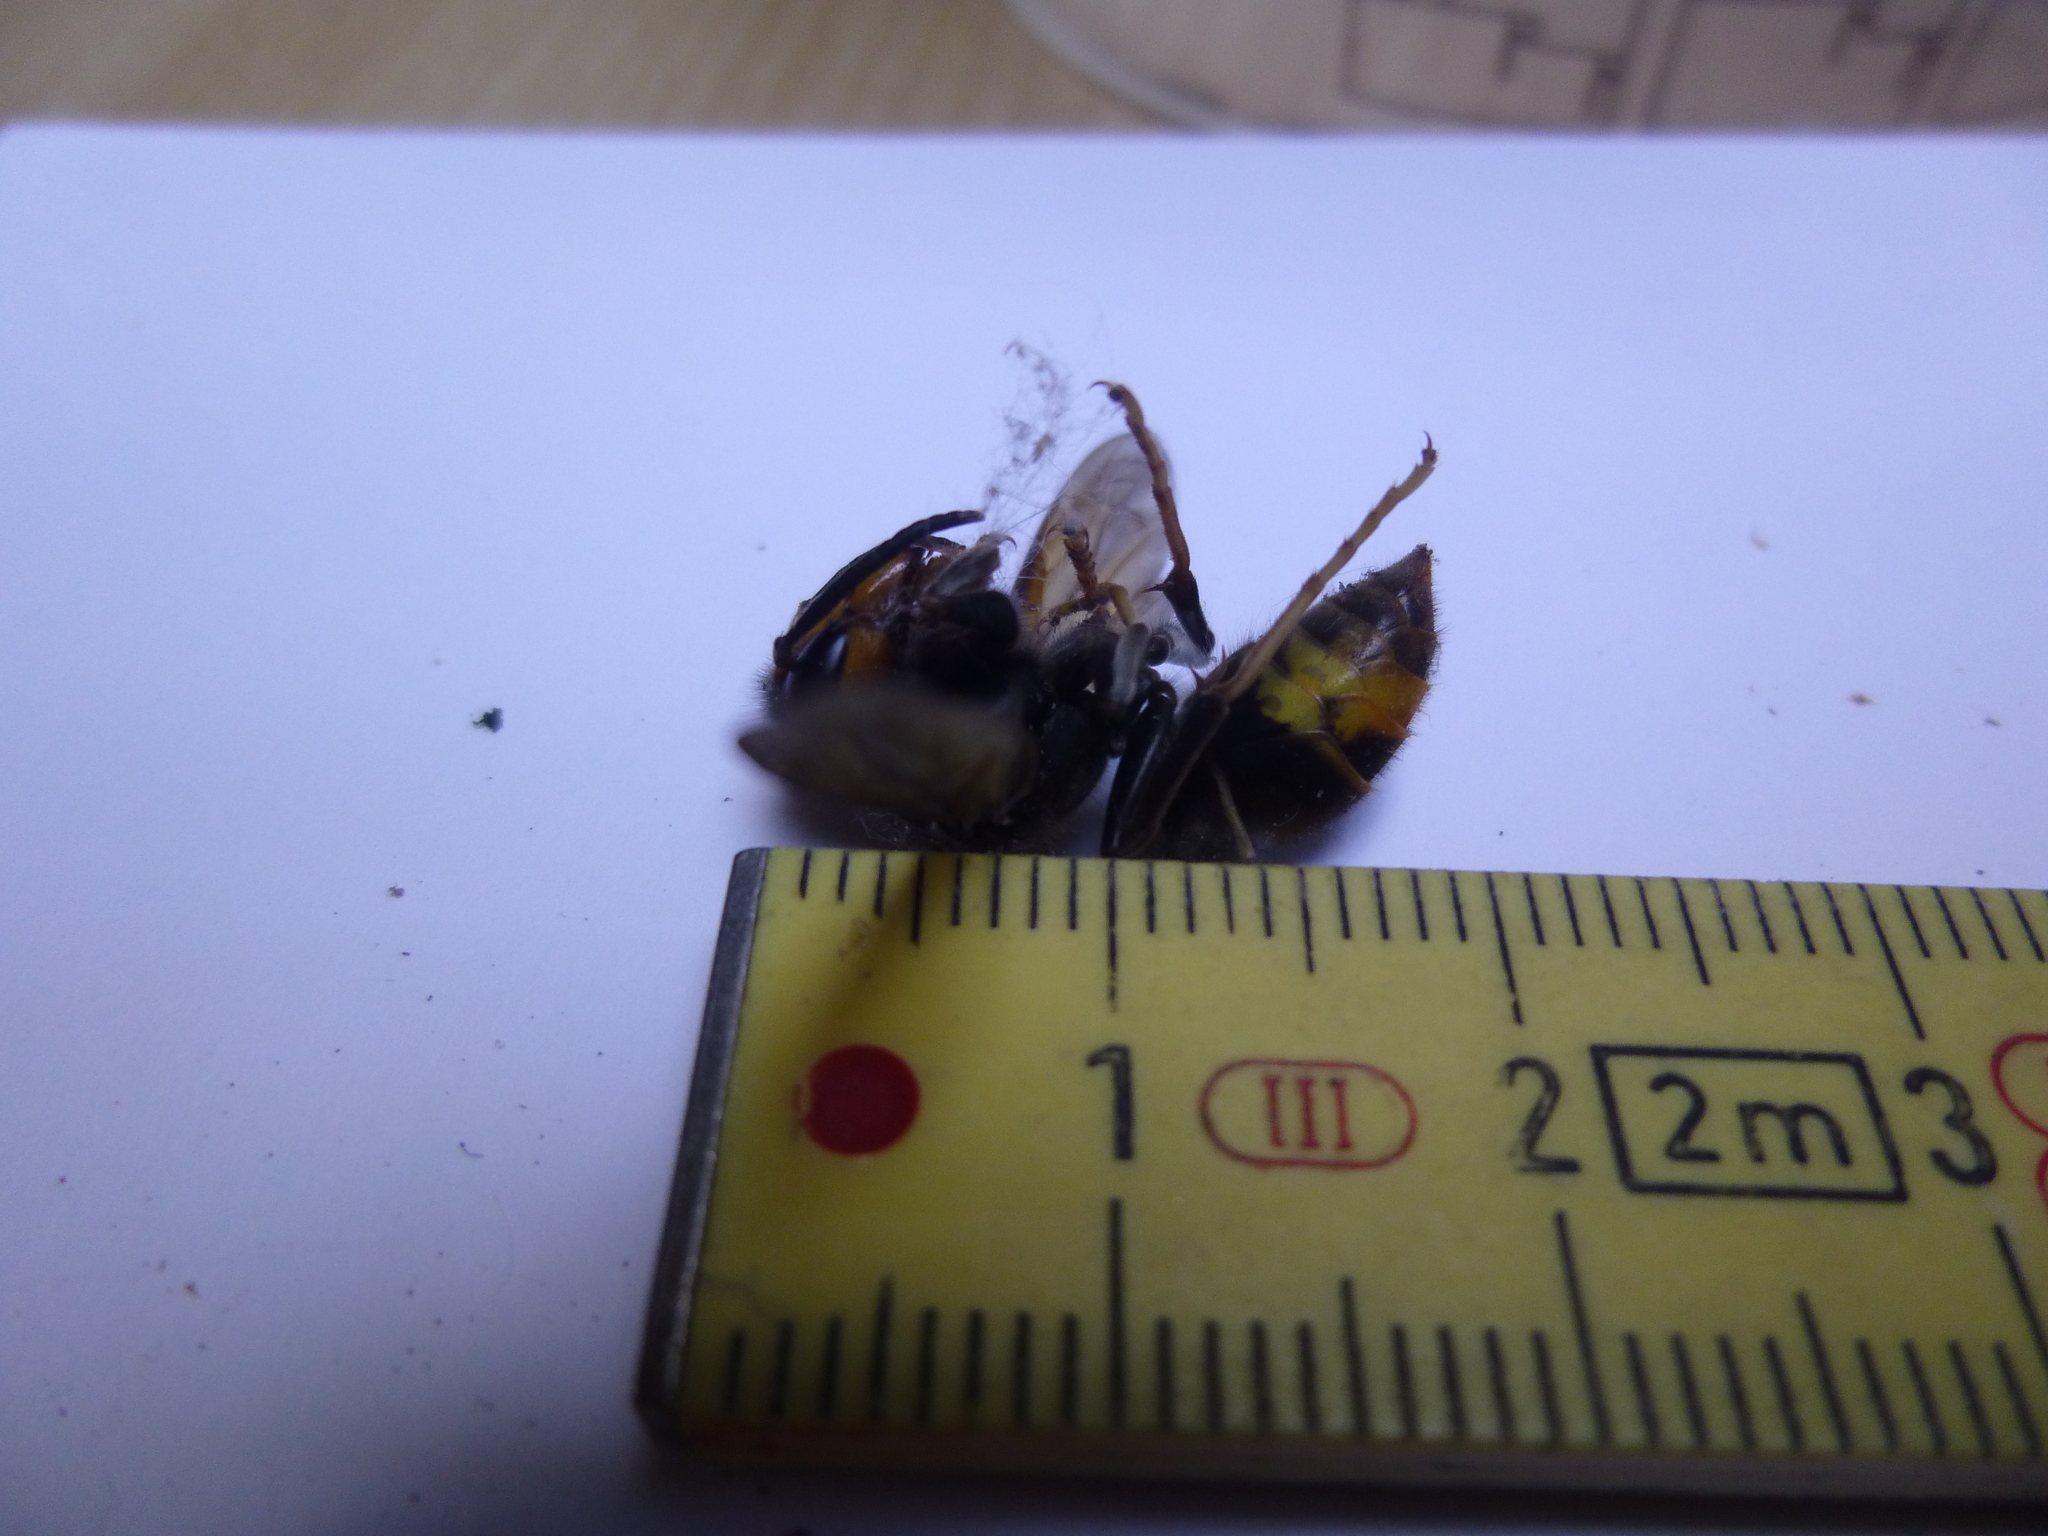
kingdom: Animalia
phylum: Arthropoda
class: Insecta
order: Hymenoptera
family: Vespidae
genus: Vespa
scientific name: Vespa velutina
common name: Asian hornet
